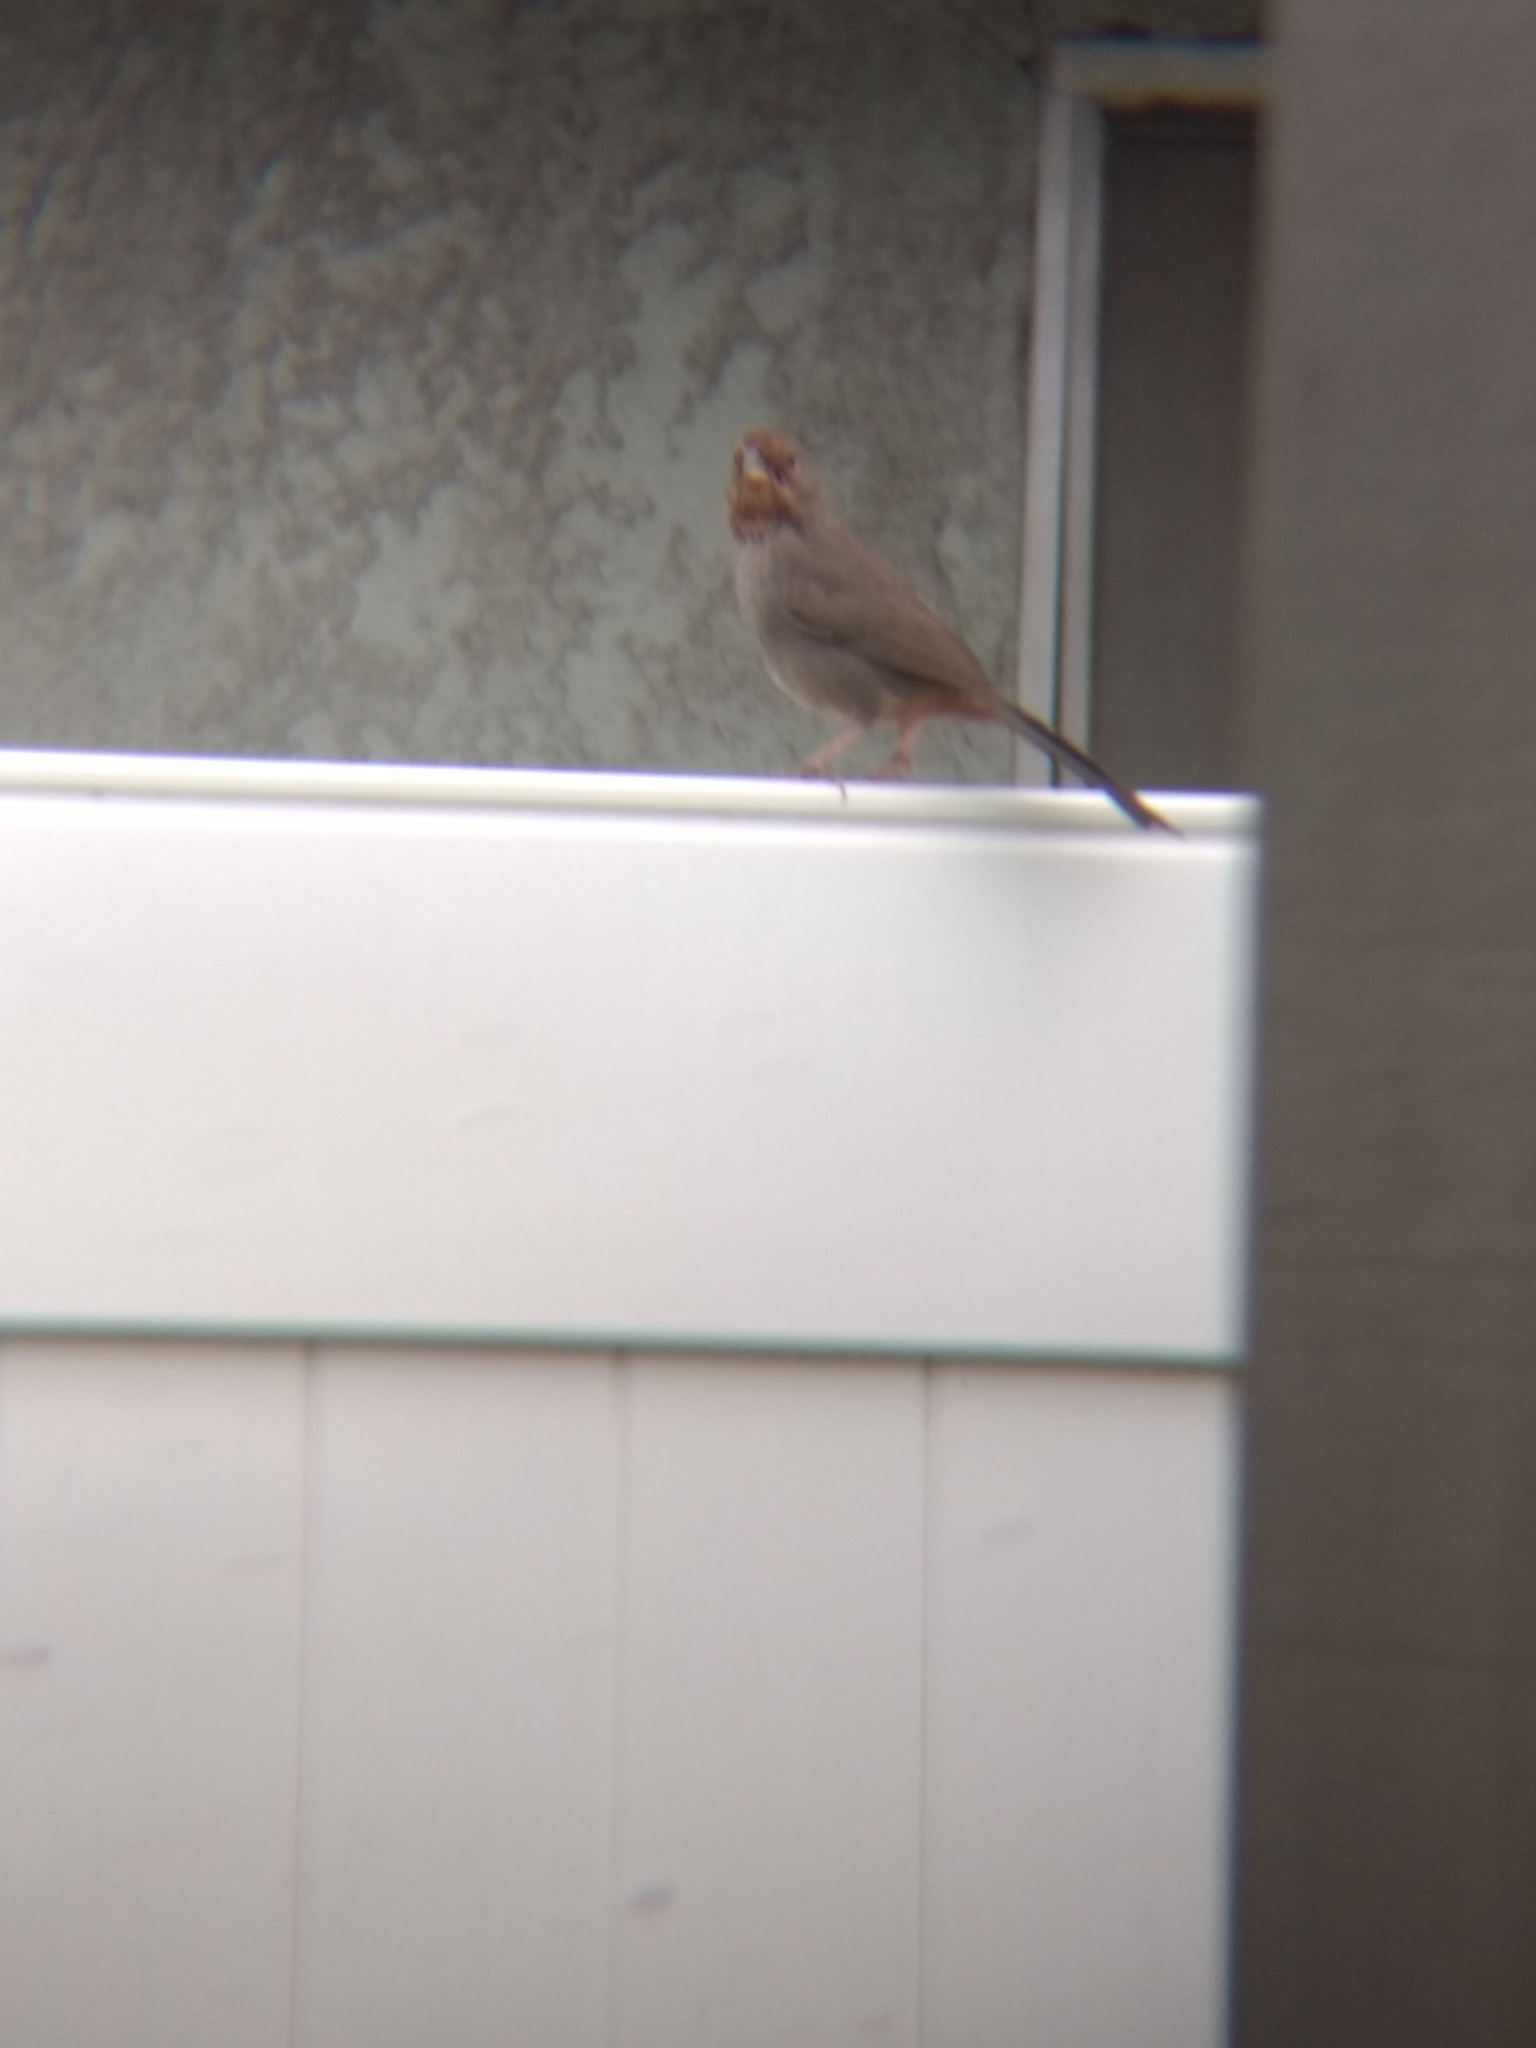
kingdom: Animalia
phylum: Chordata
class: Aves
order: Passeriformes
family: Passerellidae
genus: Melozone
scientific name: Melozone crissalis
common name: California towhee
